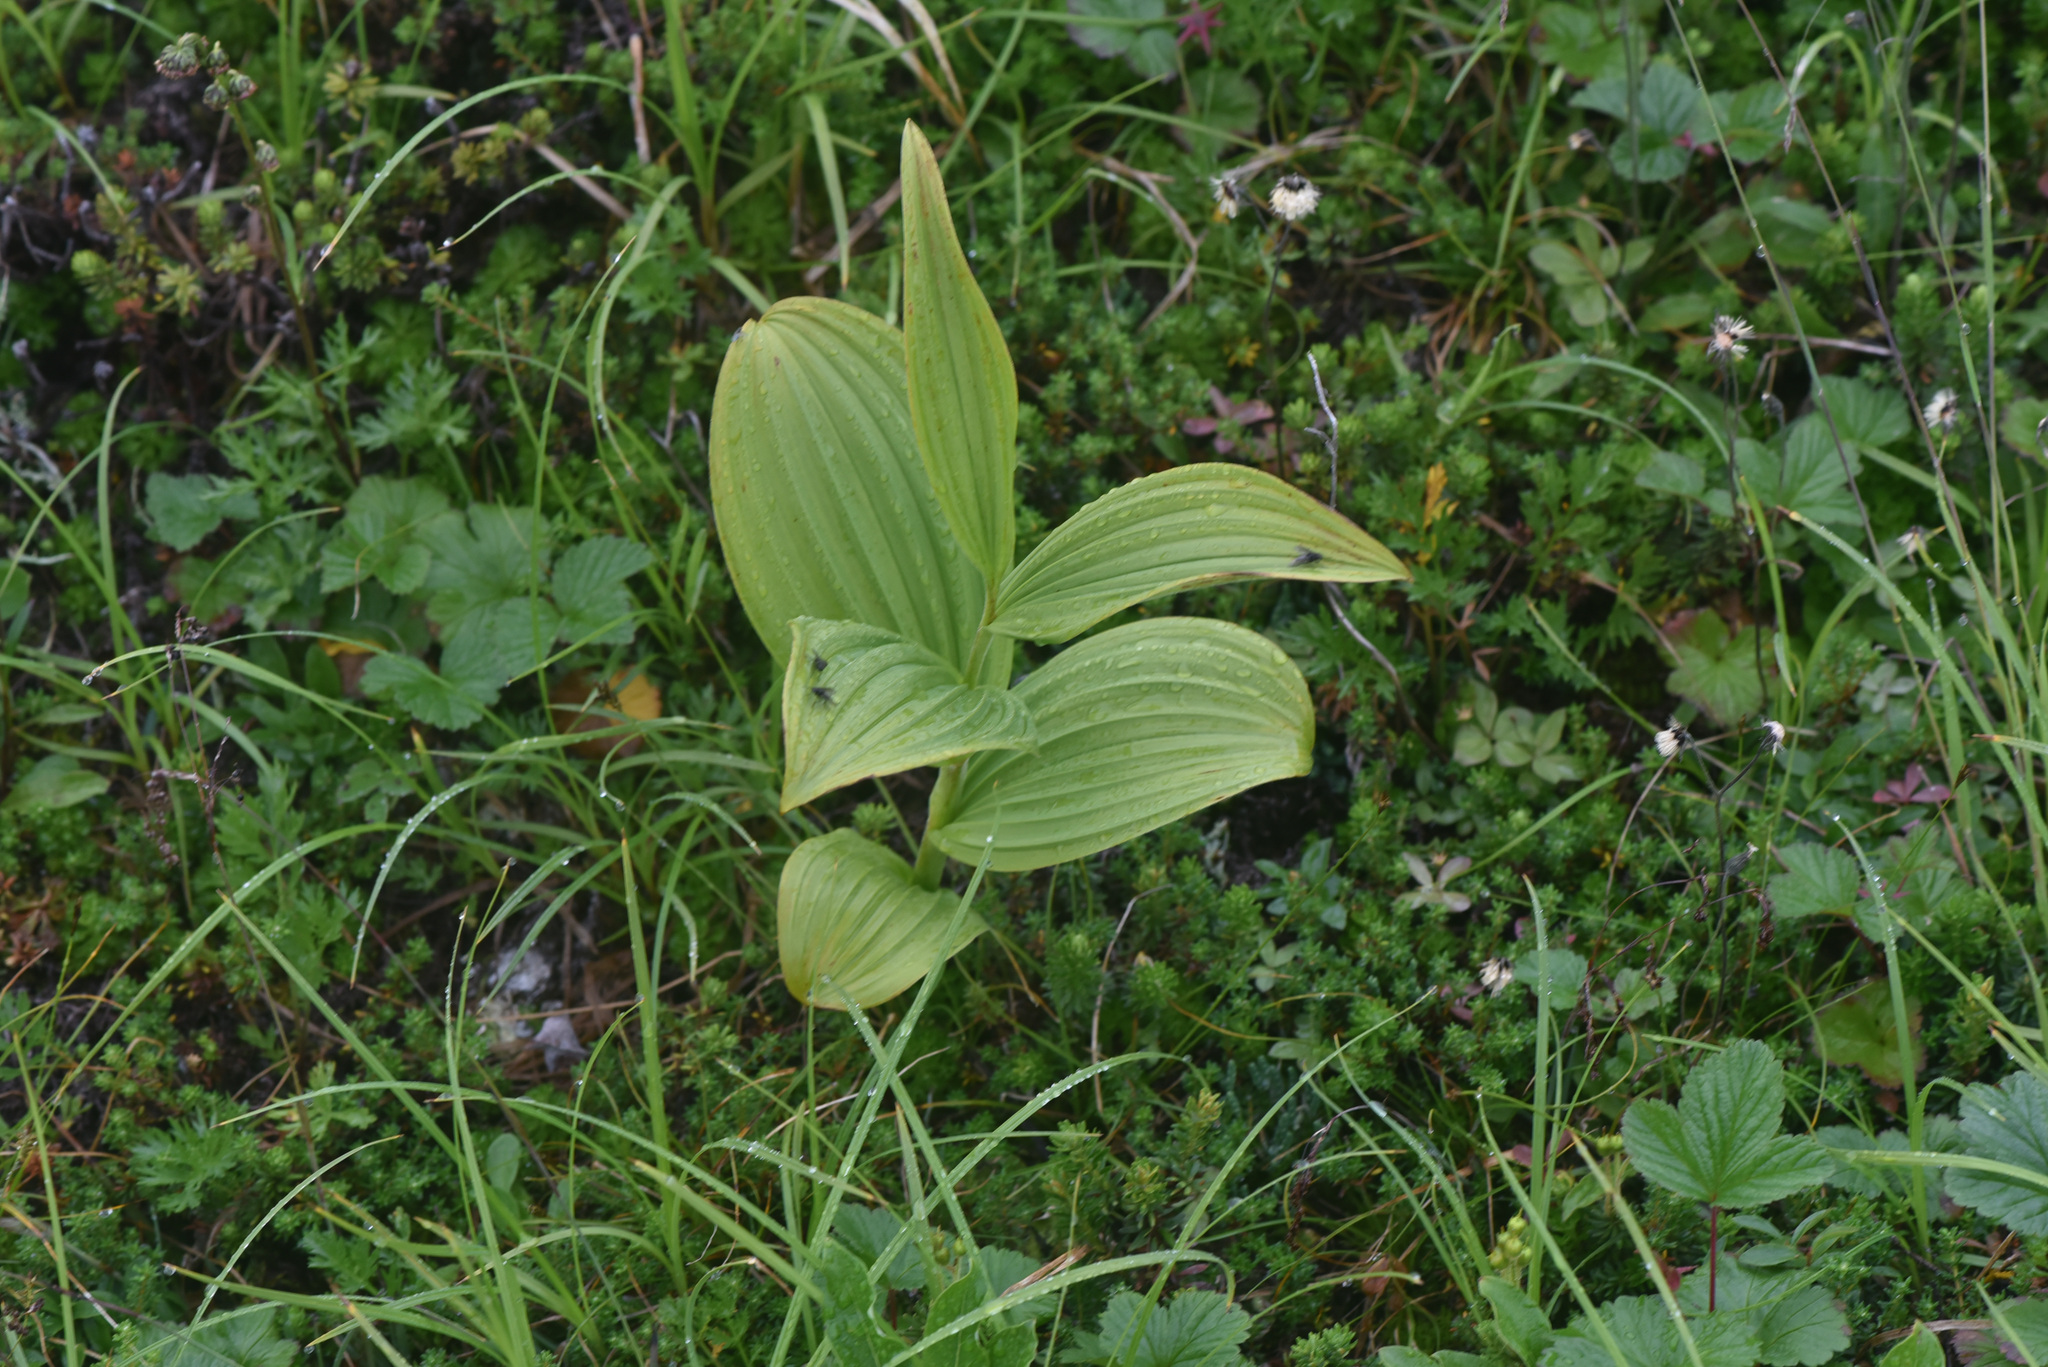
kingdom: Plantae
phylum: Tracheophyta
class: Liliopsida
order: Liliales
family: Melanthiaceae
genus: Veratrum
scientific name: Veratrum viride
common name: American false hellebore
